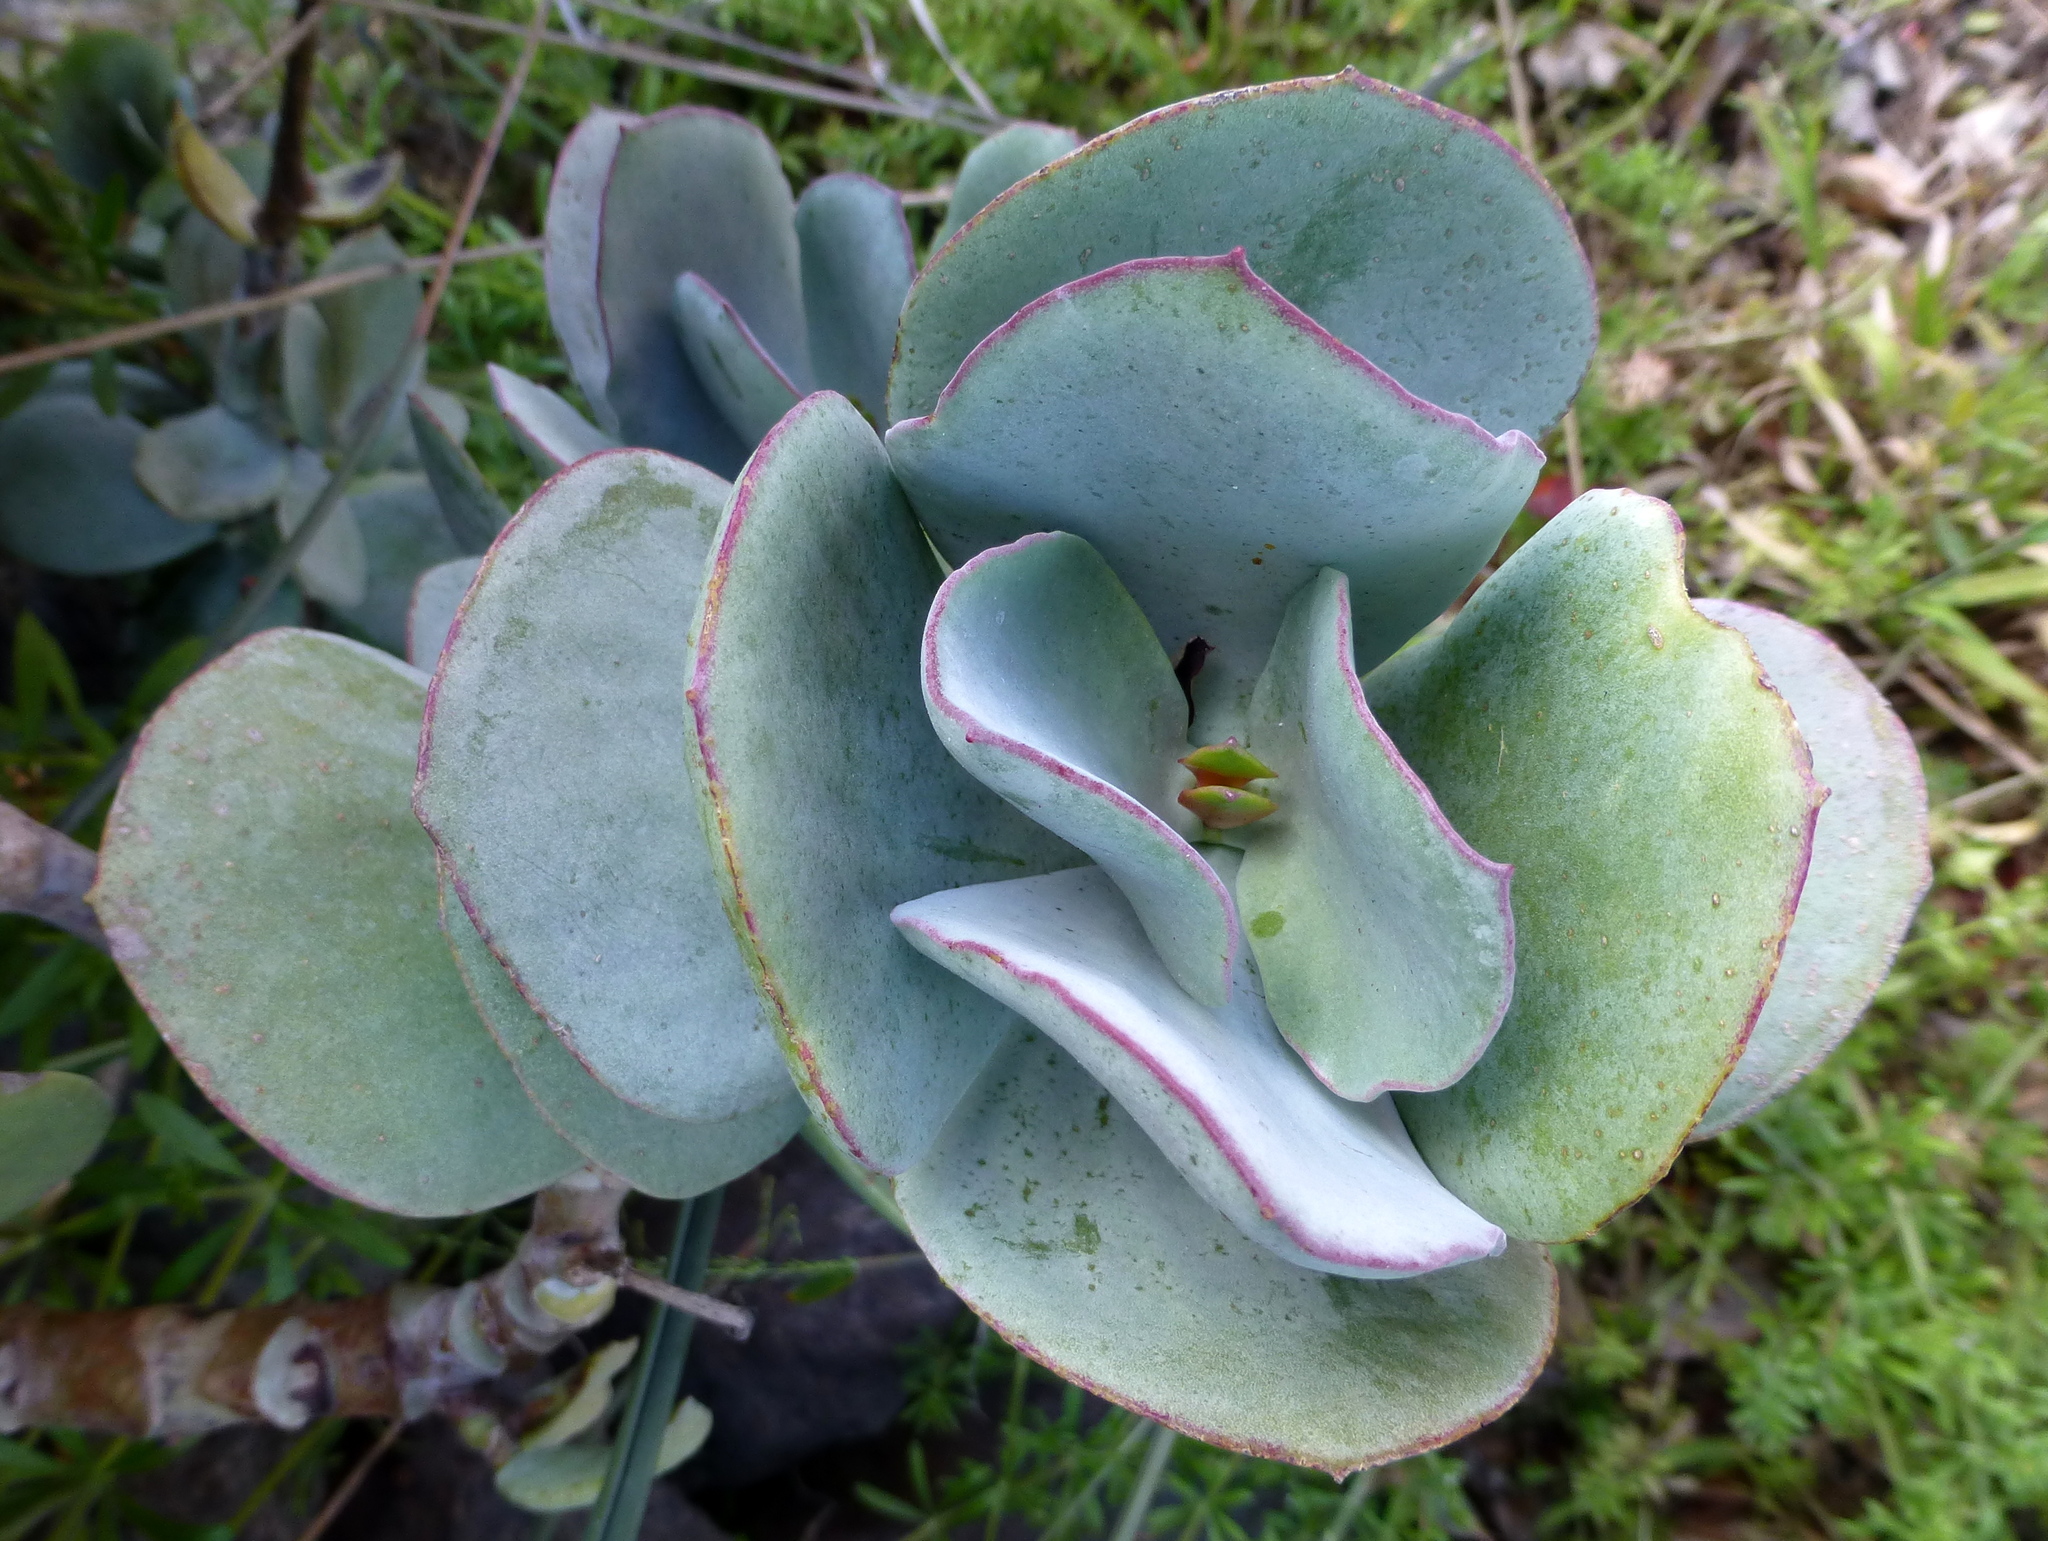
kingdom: Plantae
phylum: Tracheophyta
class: Magnoliopsida
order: Saxifragales
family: Crassulaceae
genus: Cotyledon
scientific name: Cotyledon orbiculata
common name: Pig's ear
